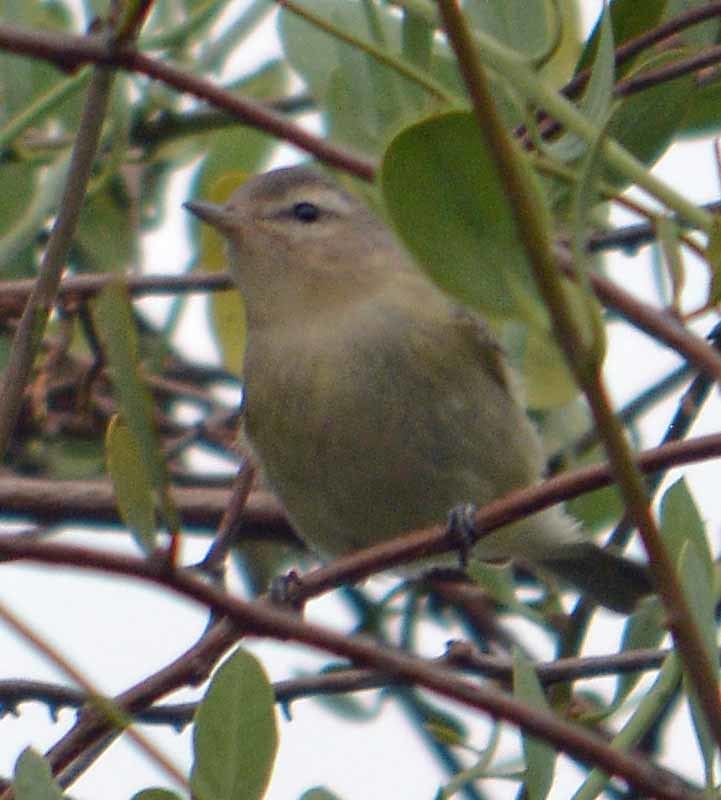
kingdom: Animalia
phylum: Chordata
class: Aves
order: Passeriformes
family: Vireonidae
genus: Vireo
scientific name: Vireo gilvus
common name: Warbling vireo
